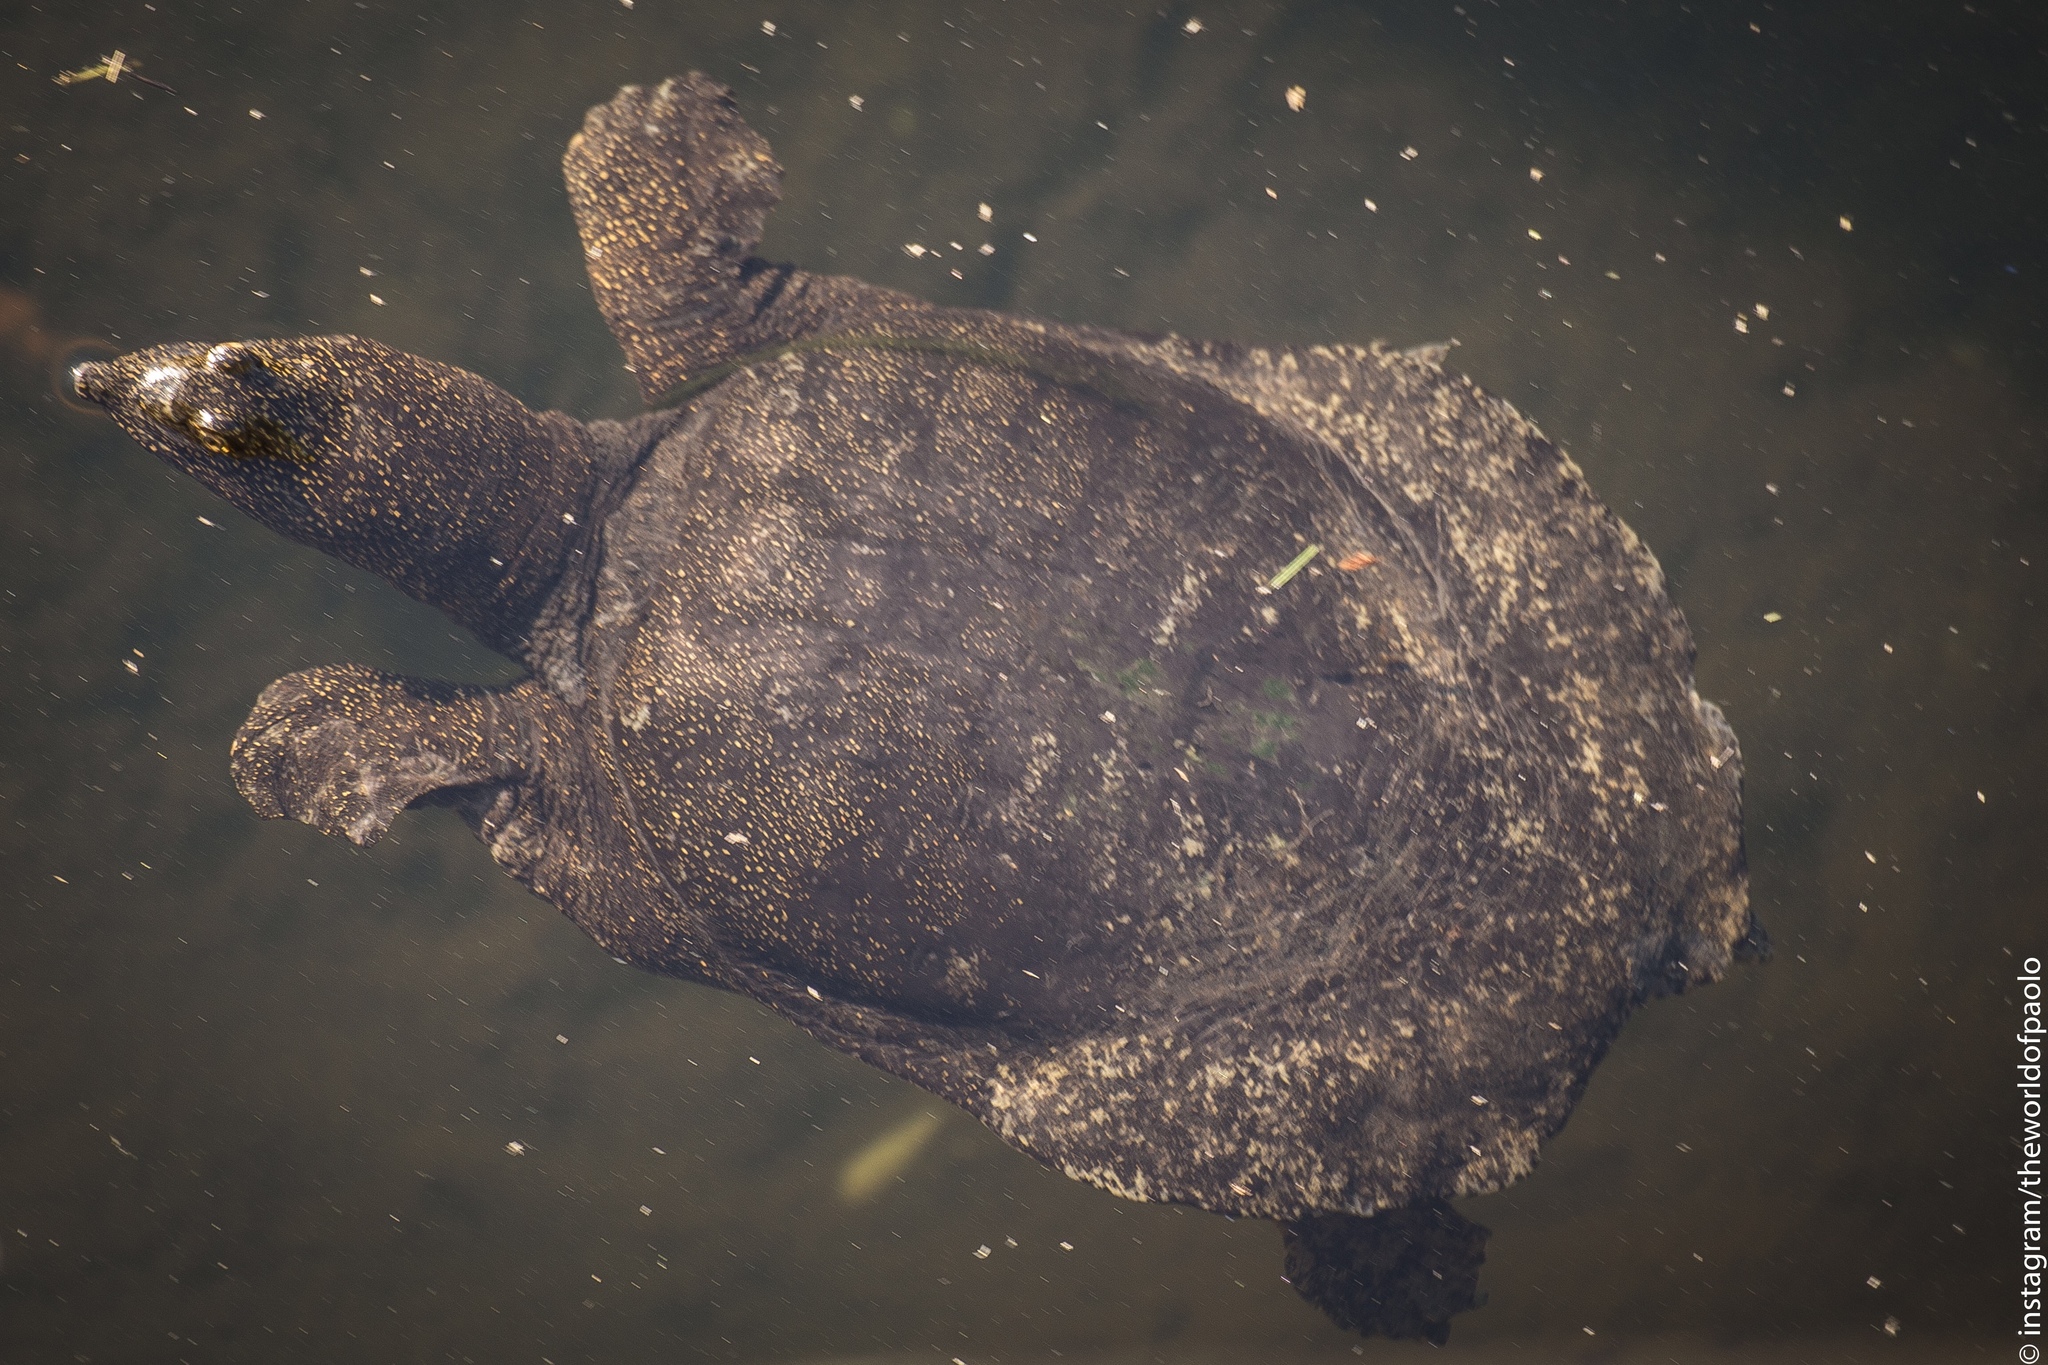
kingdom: Animalia
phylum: Chordata
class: Testudines
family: Trionychidae
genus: Pelodiscus
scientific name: Pelodiscus sinensis
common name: Chinese softshell turtle
